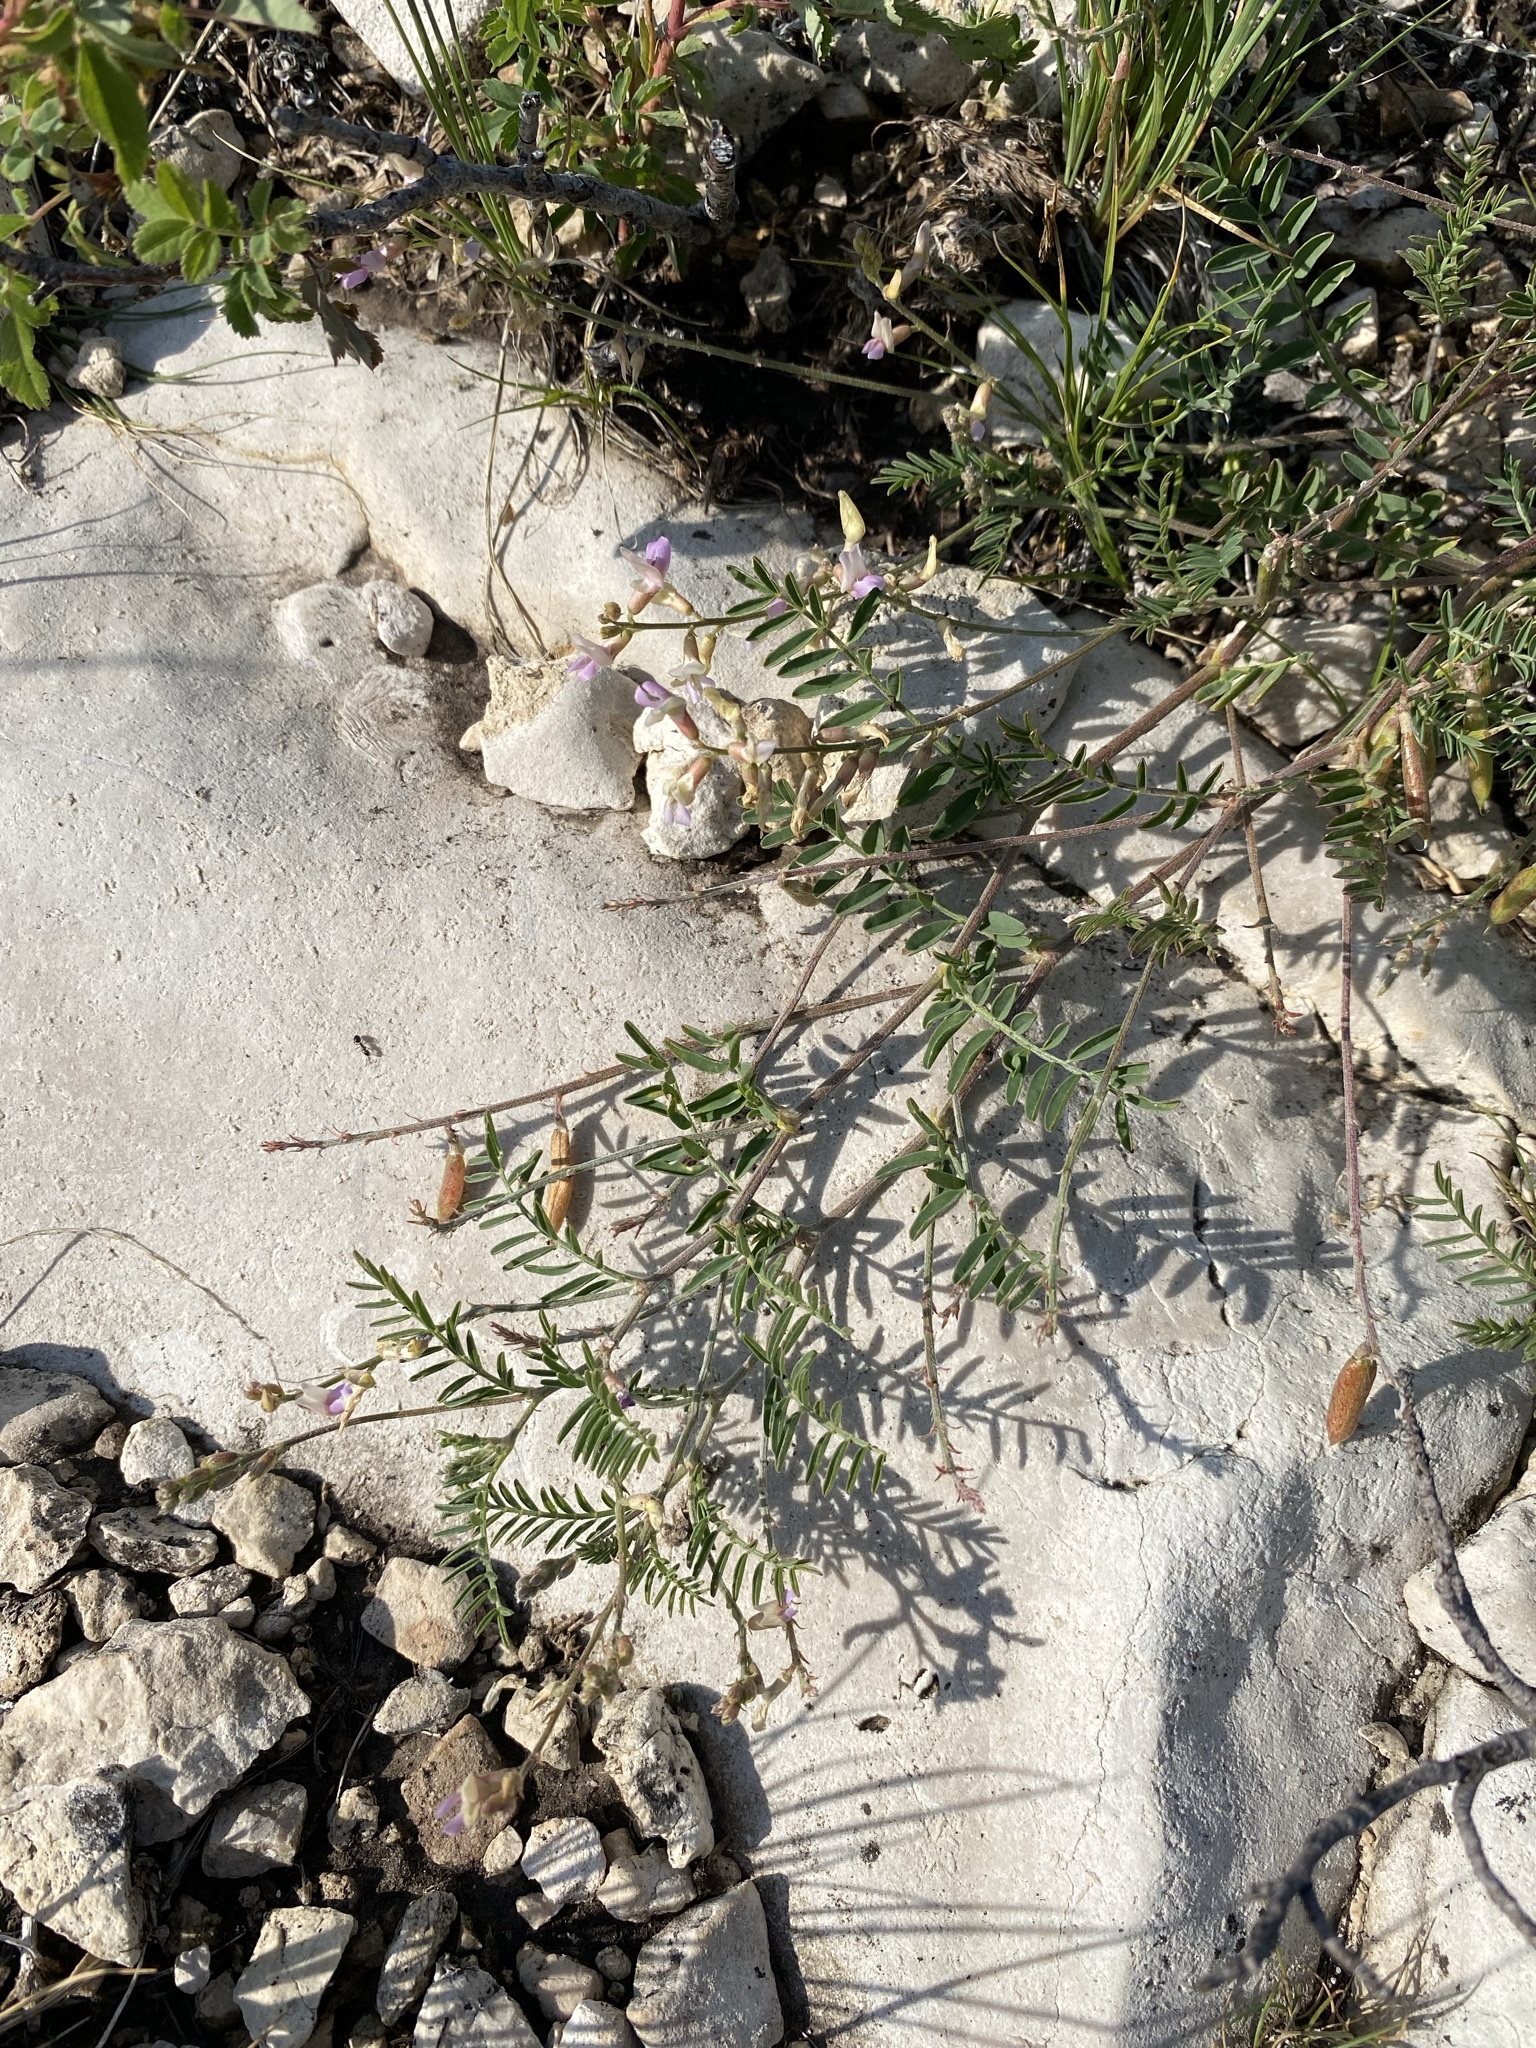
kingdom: Plantae
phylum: Tracheophyta
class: Magnoliopsida
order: Fabales
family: Fabaceae
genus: Astragalus
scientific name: Astragalus flexuosus
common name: Pliant milk-vetch
